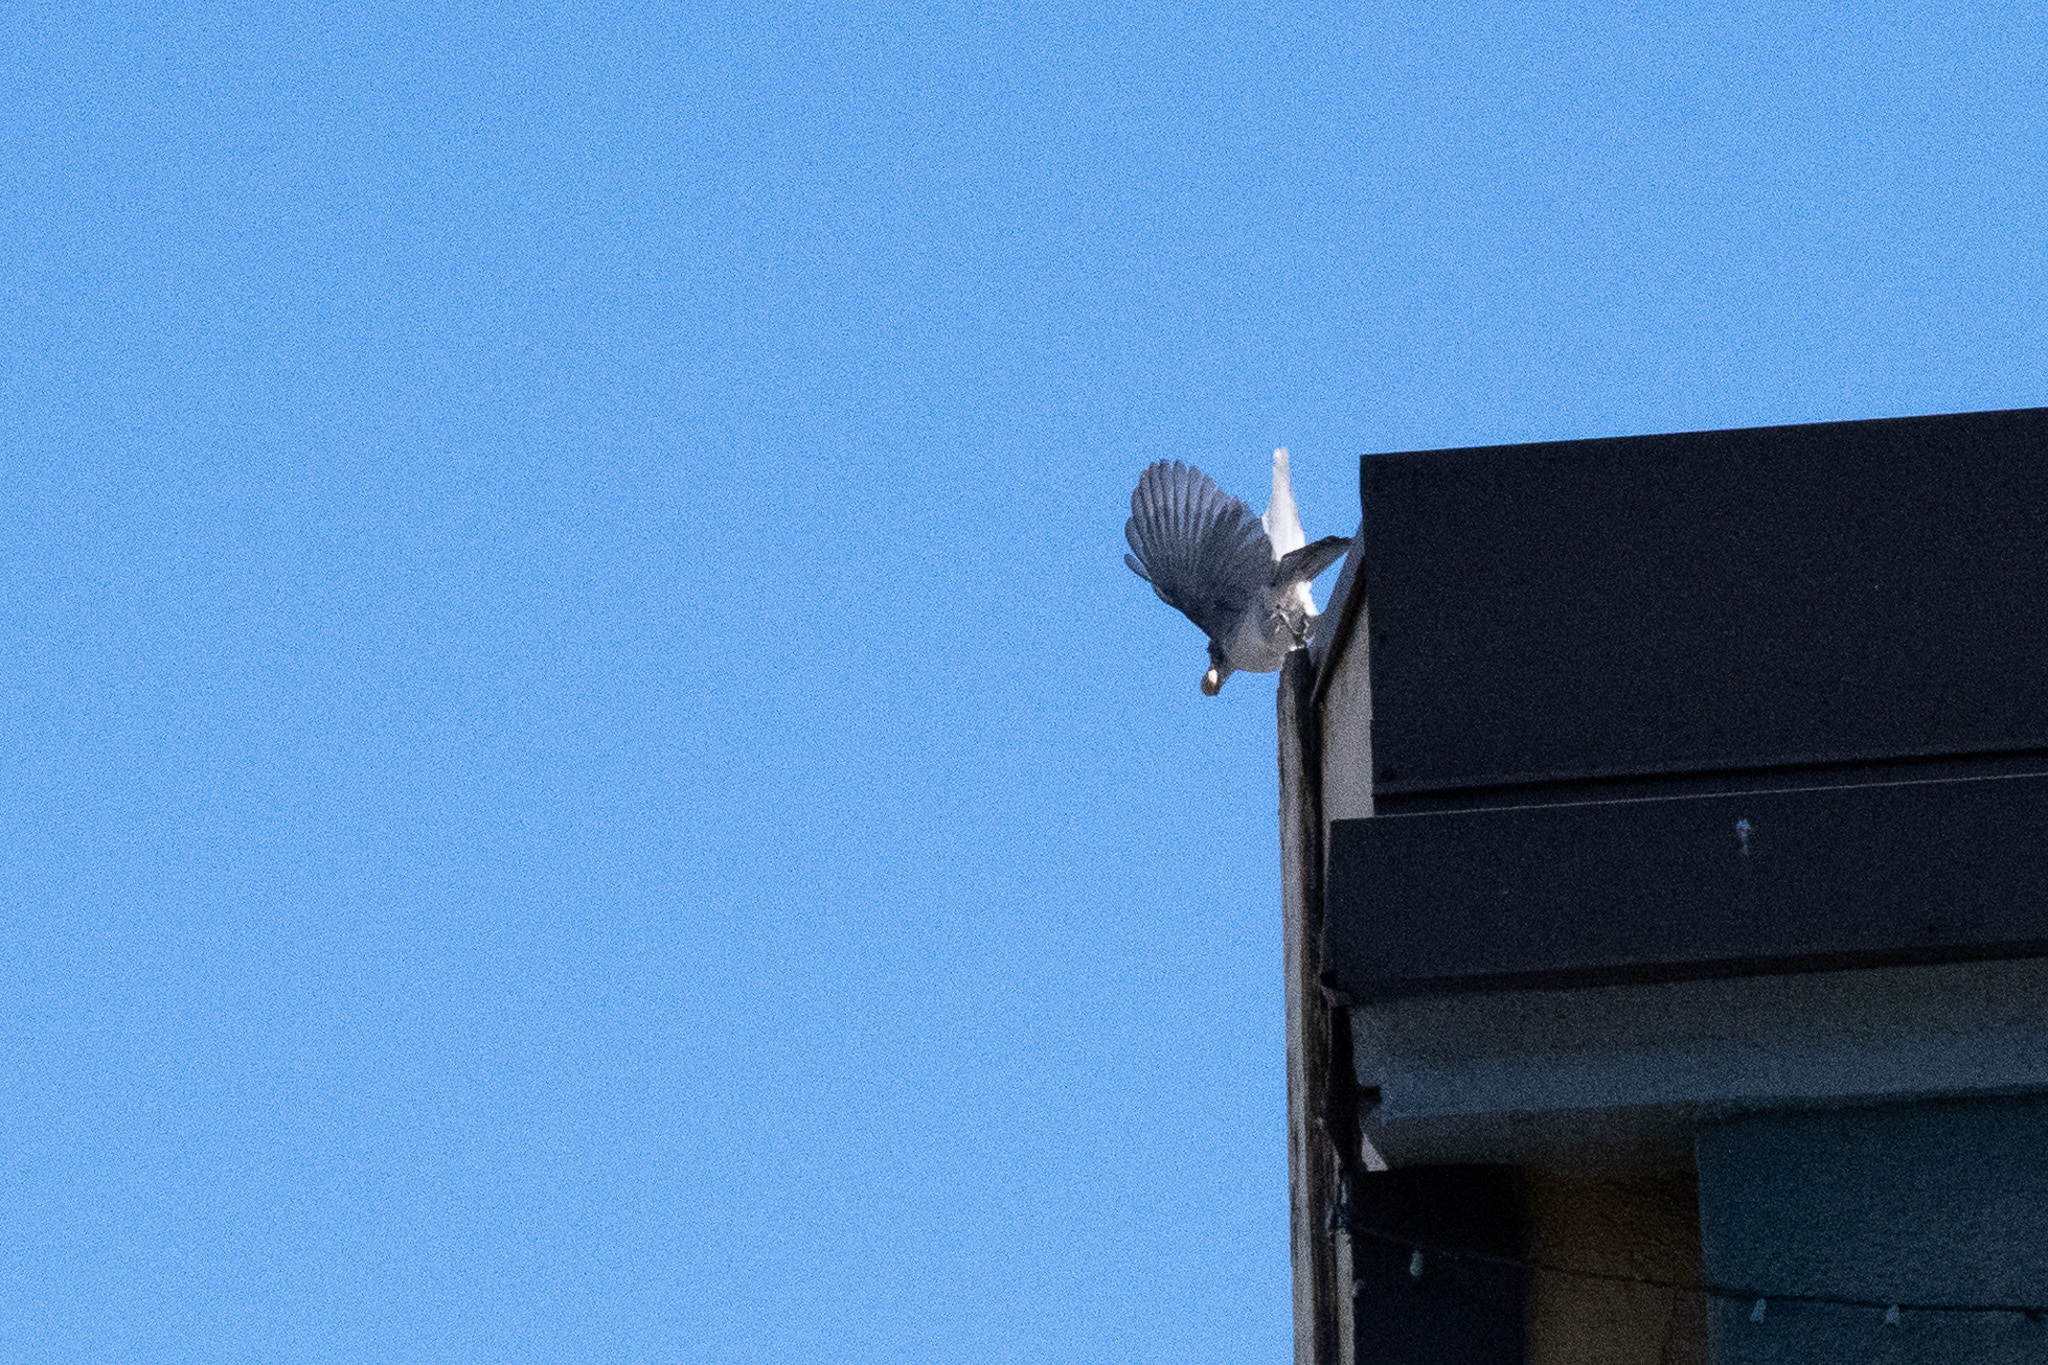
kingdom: Animalia
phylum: Chordata
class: Aves
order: Passeriformes
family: Corvidae
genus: Aphelocoma
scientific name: Aphelocoma californica
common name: California scrub-jay
